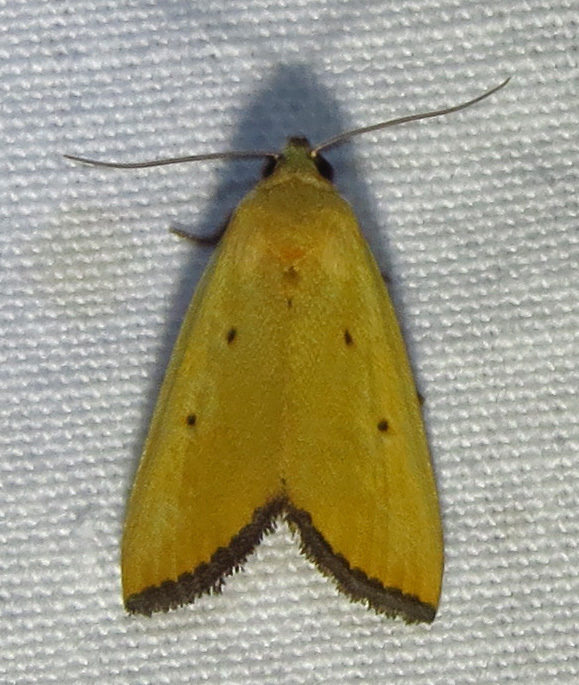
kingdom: Animalia
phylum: Arthropoda
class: Insecta
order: Lepidoptera
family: Noctuidae
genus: Marimatha
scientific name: Marimatha nigrofimbria
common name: Black-bordered lemon moth
